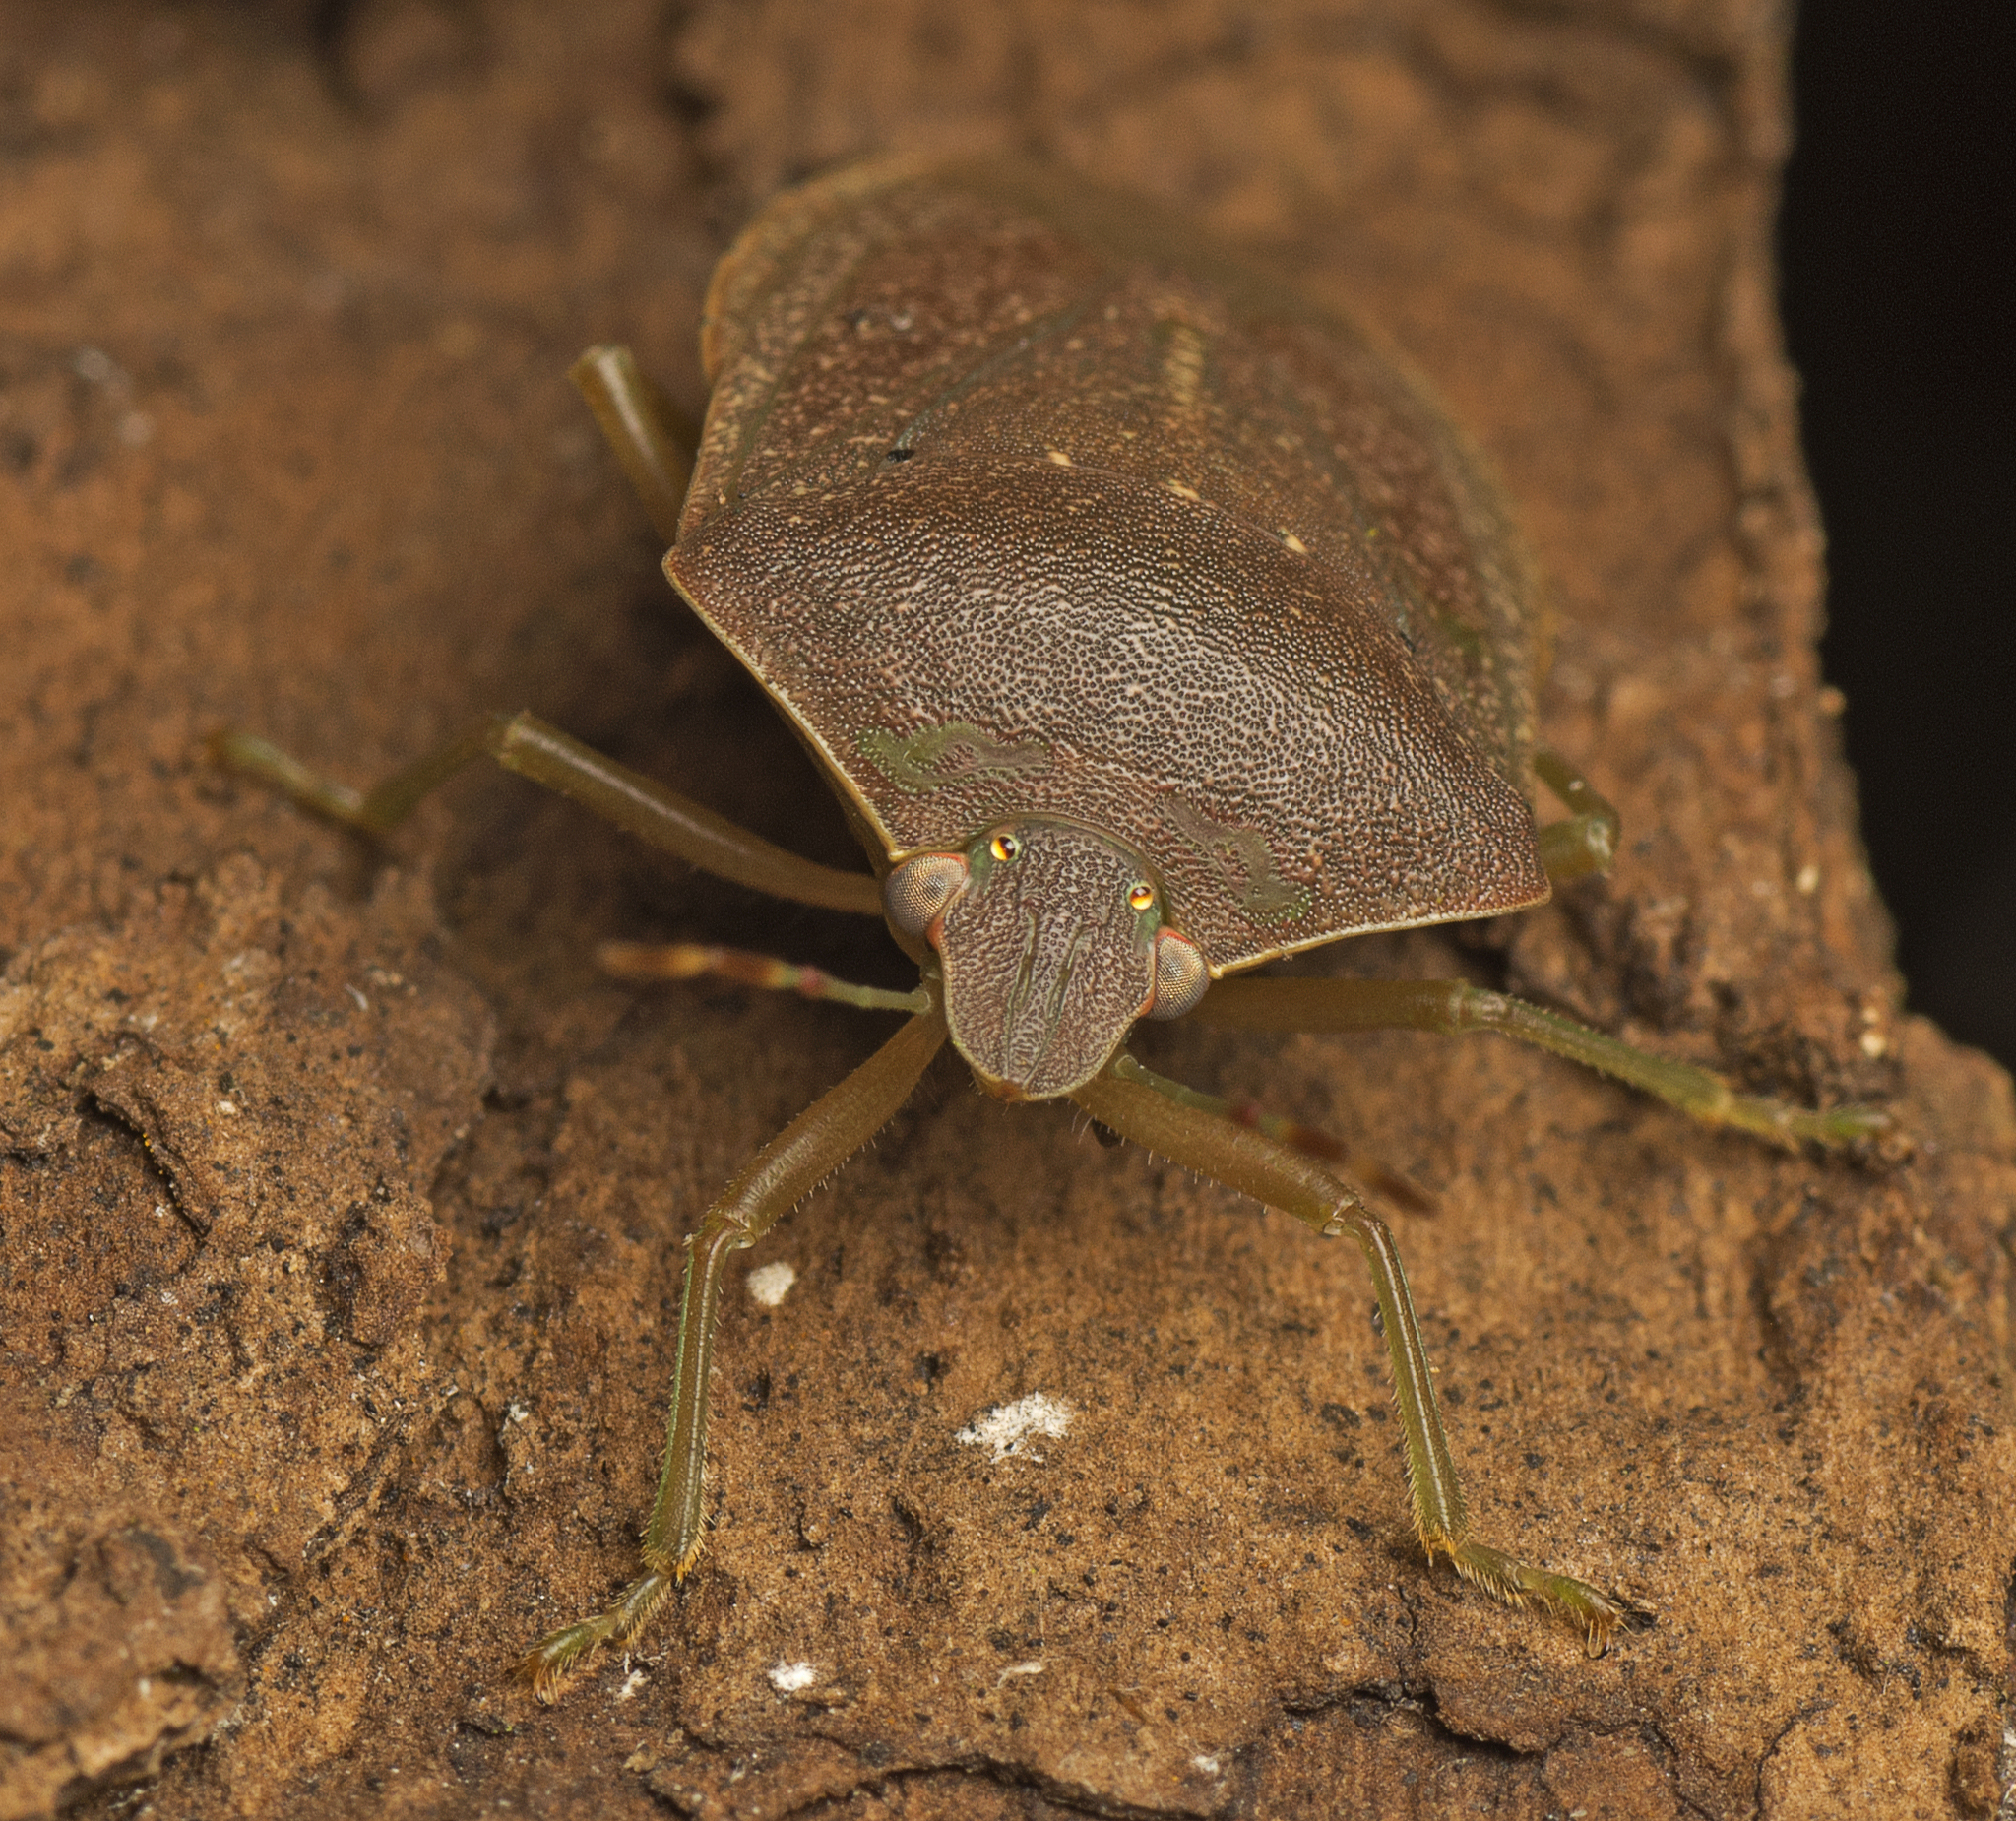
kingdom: Animalia
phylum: Arthropoda
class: Insecta
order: Hemiptera
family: Pentatomidae
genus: Nezara
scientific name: Nezara viridula
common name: Southern green stink bug
